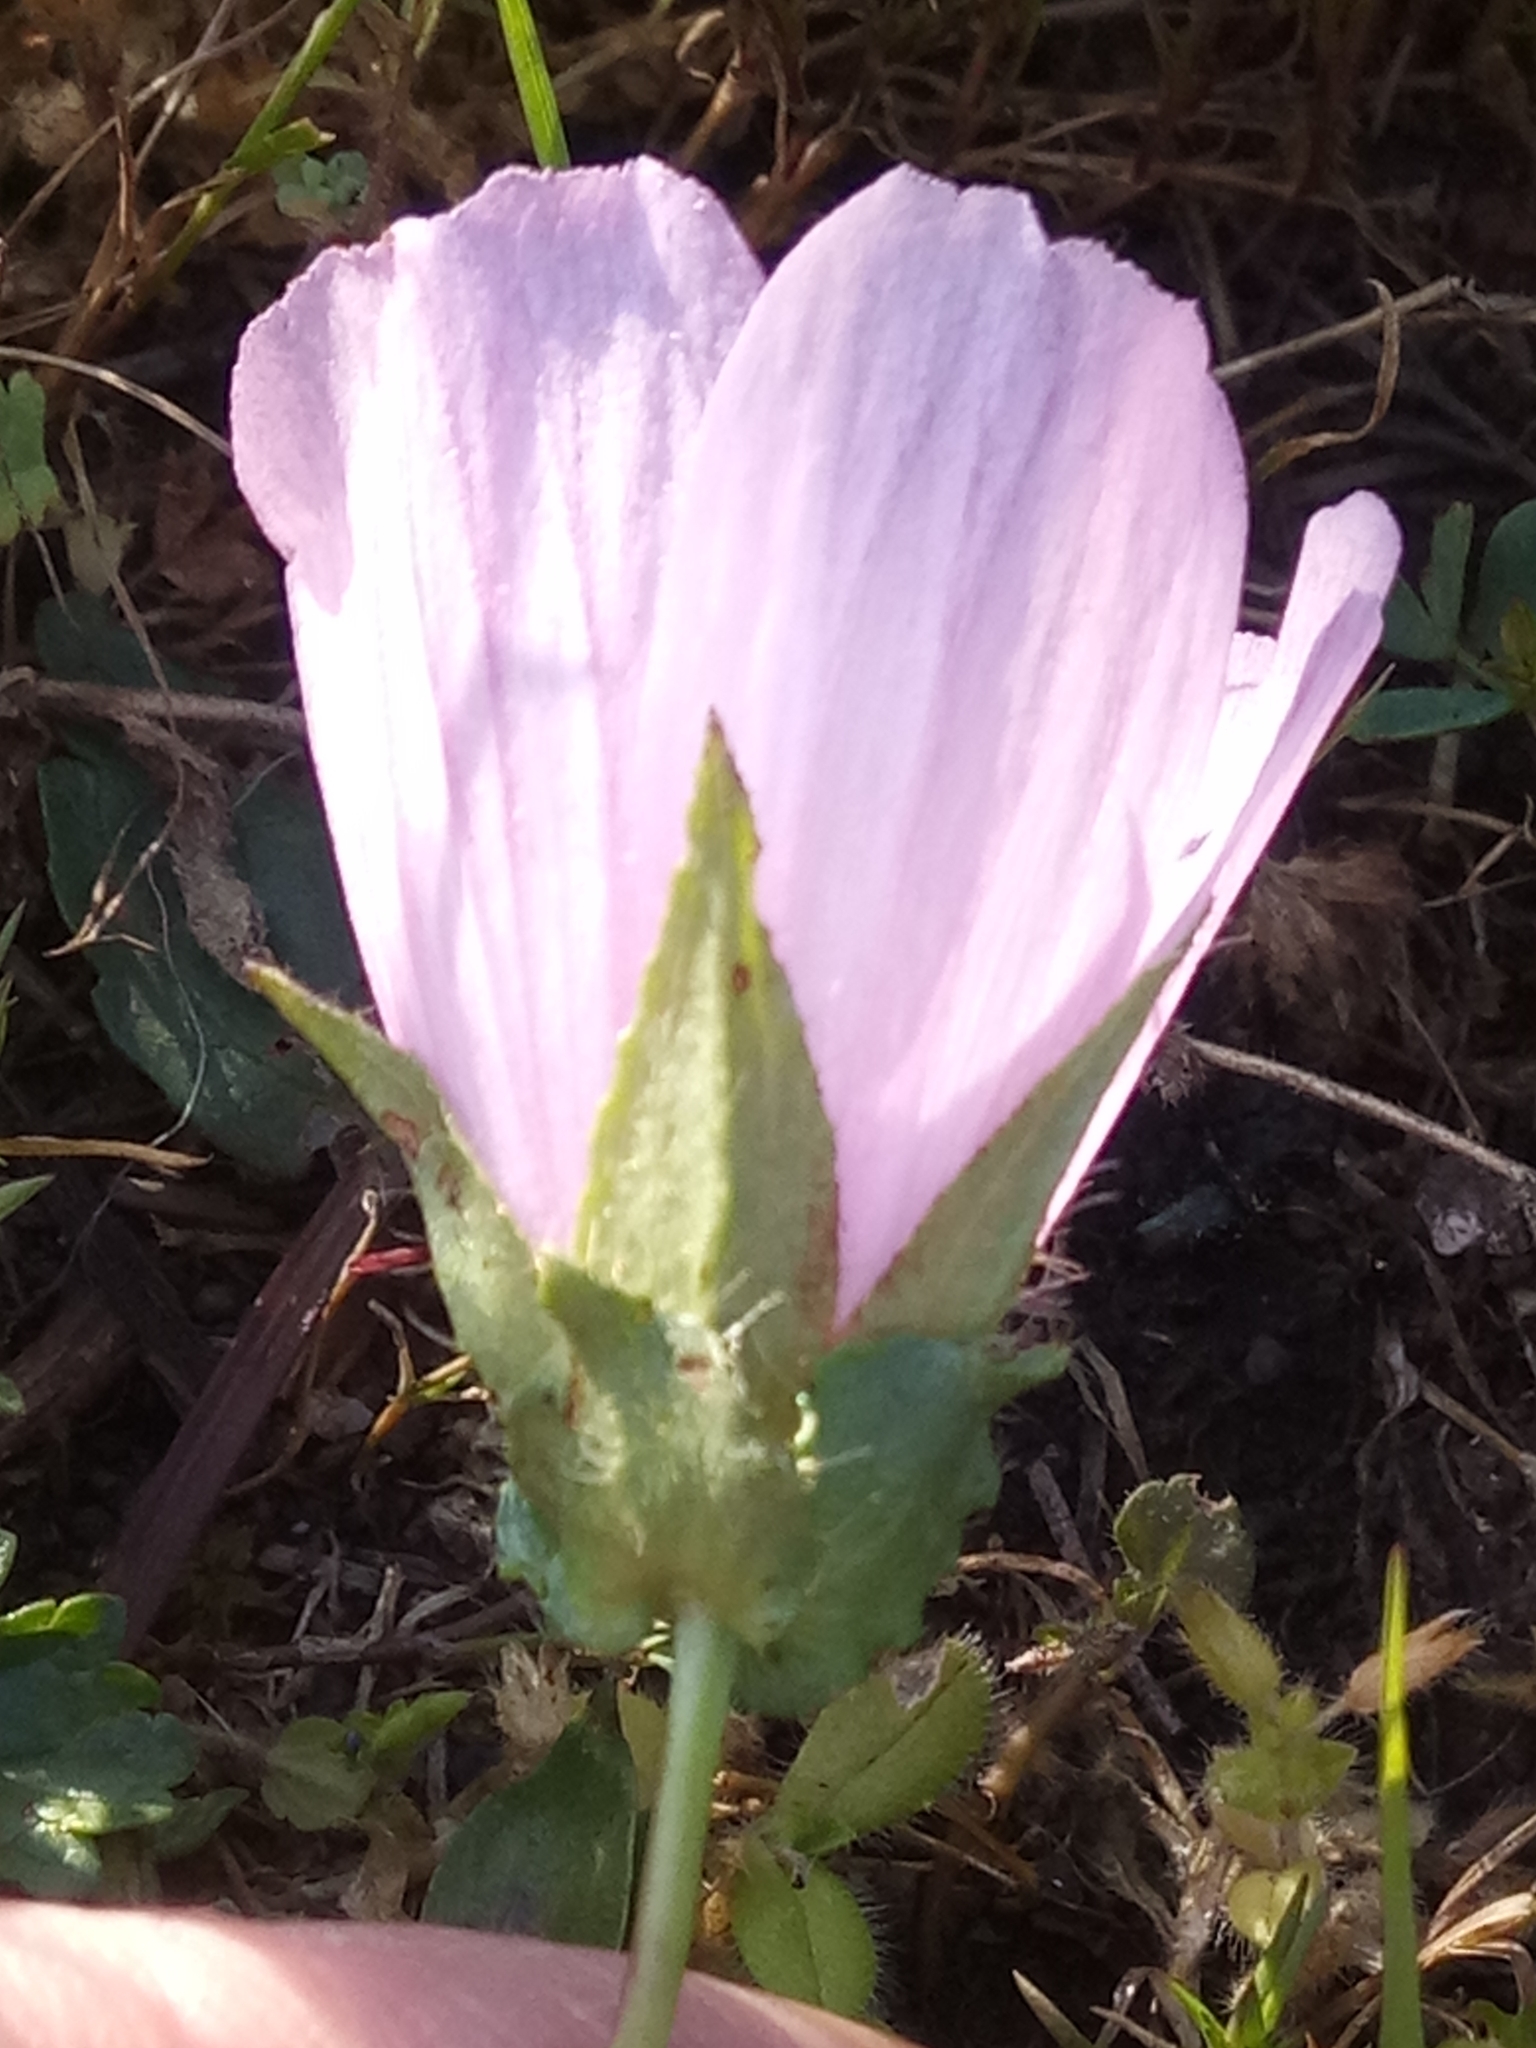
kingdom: Plantae
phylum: Tracheophyta
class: Magnoliopsida
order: Malvales
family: Malvaceae
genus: Malope
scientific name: Malope malacoides
